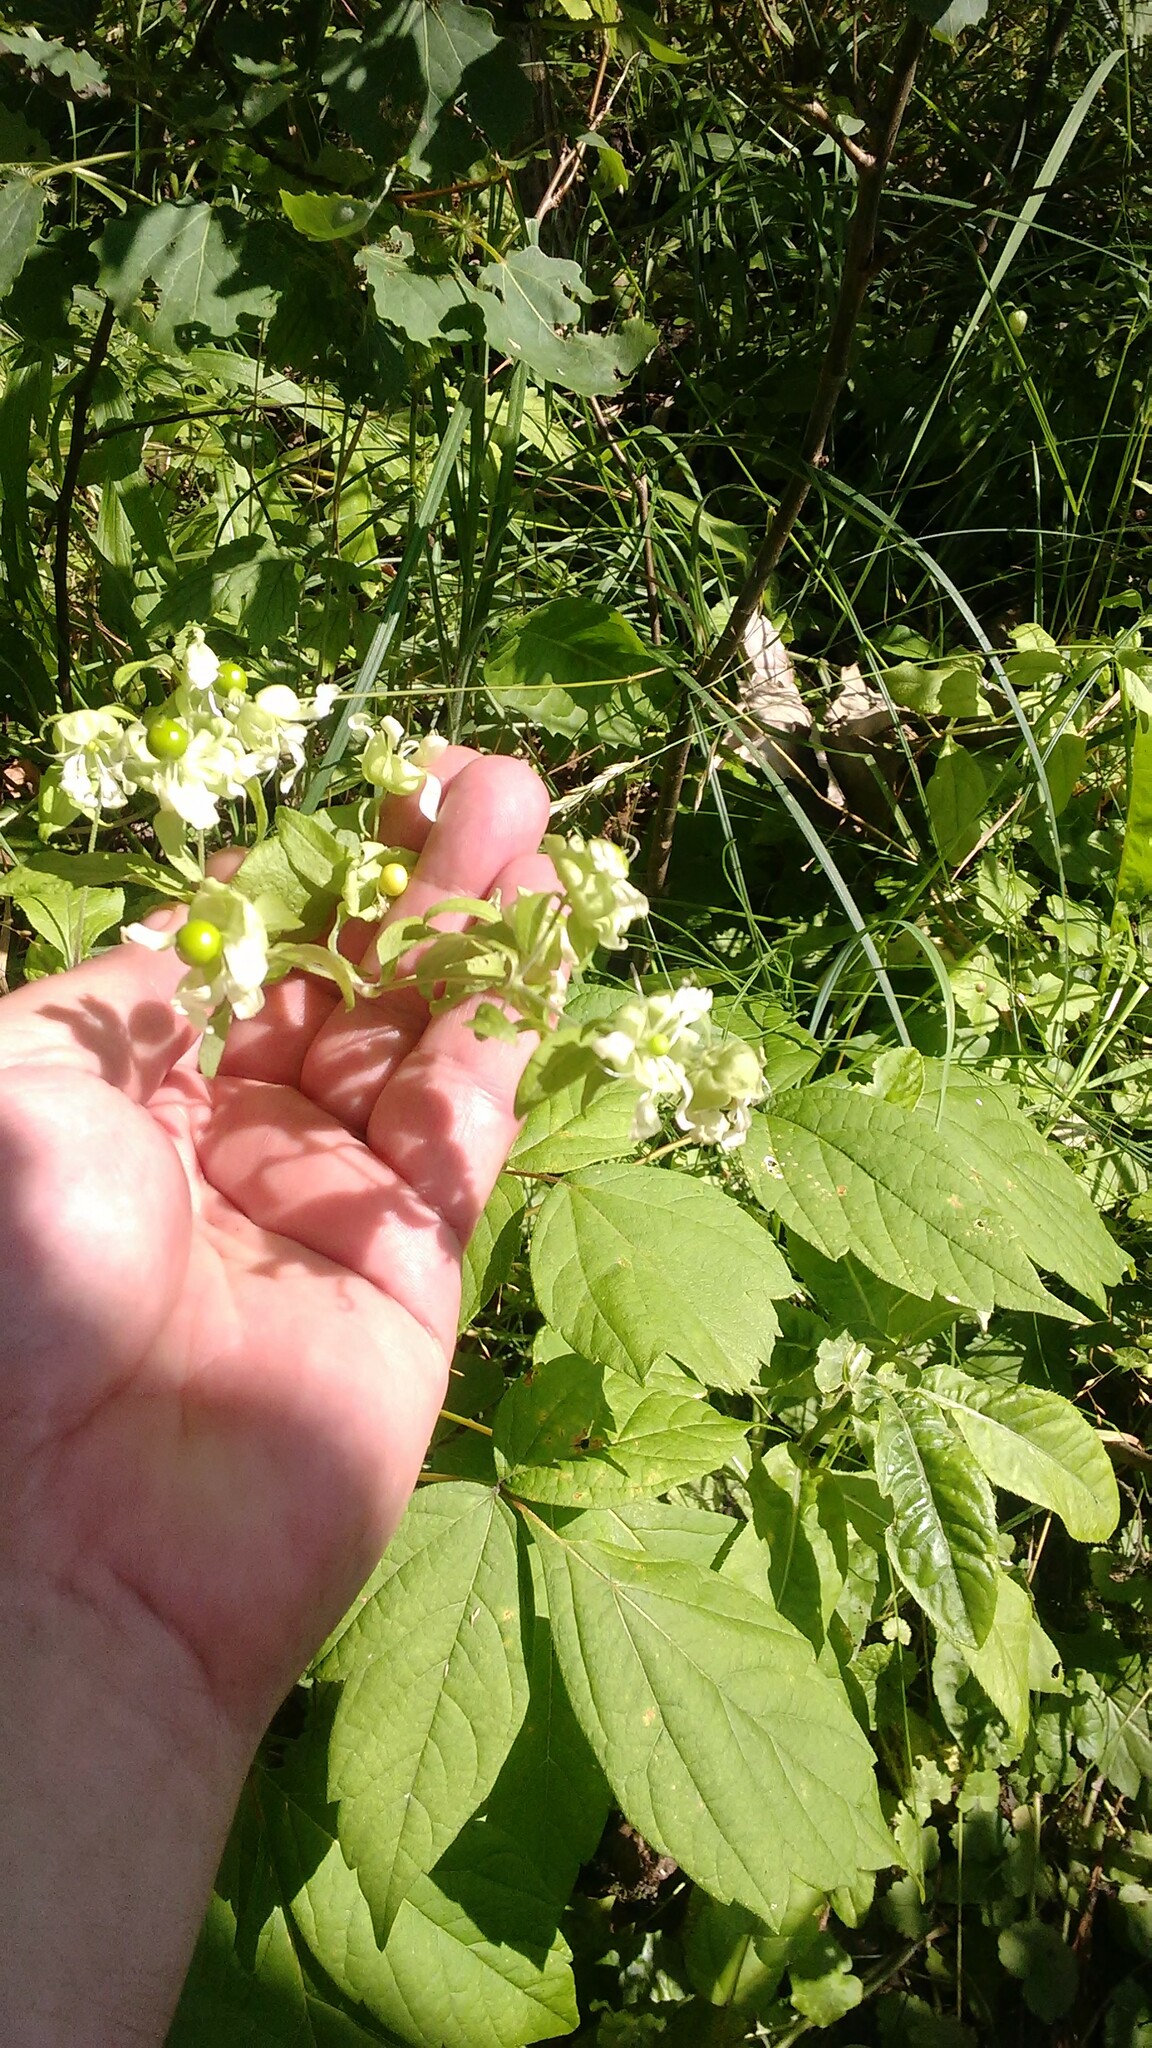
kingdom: Plantae
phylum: Tracheophyta
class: Magnoliopsida
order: Caryophyllales
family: Caryophyllaceae
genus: Silene
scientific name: Silene baccifera
